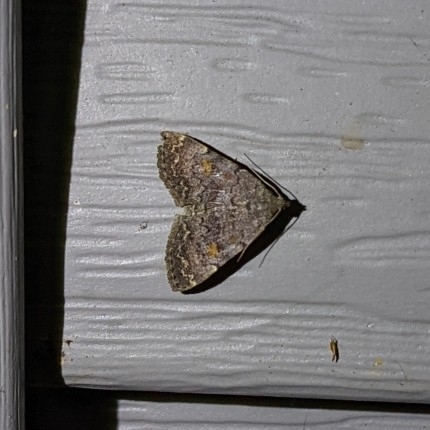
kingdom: Animalia
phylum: Arthropoda
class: Insecta
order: Lepidoptera
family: Erebidae
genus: Idia
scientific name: Idia aemula
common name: Common idia moth
